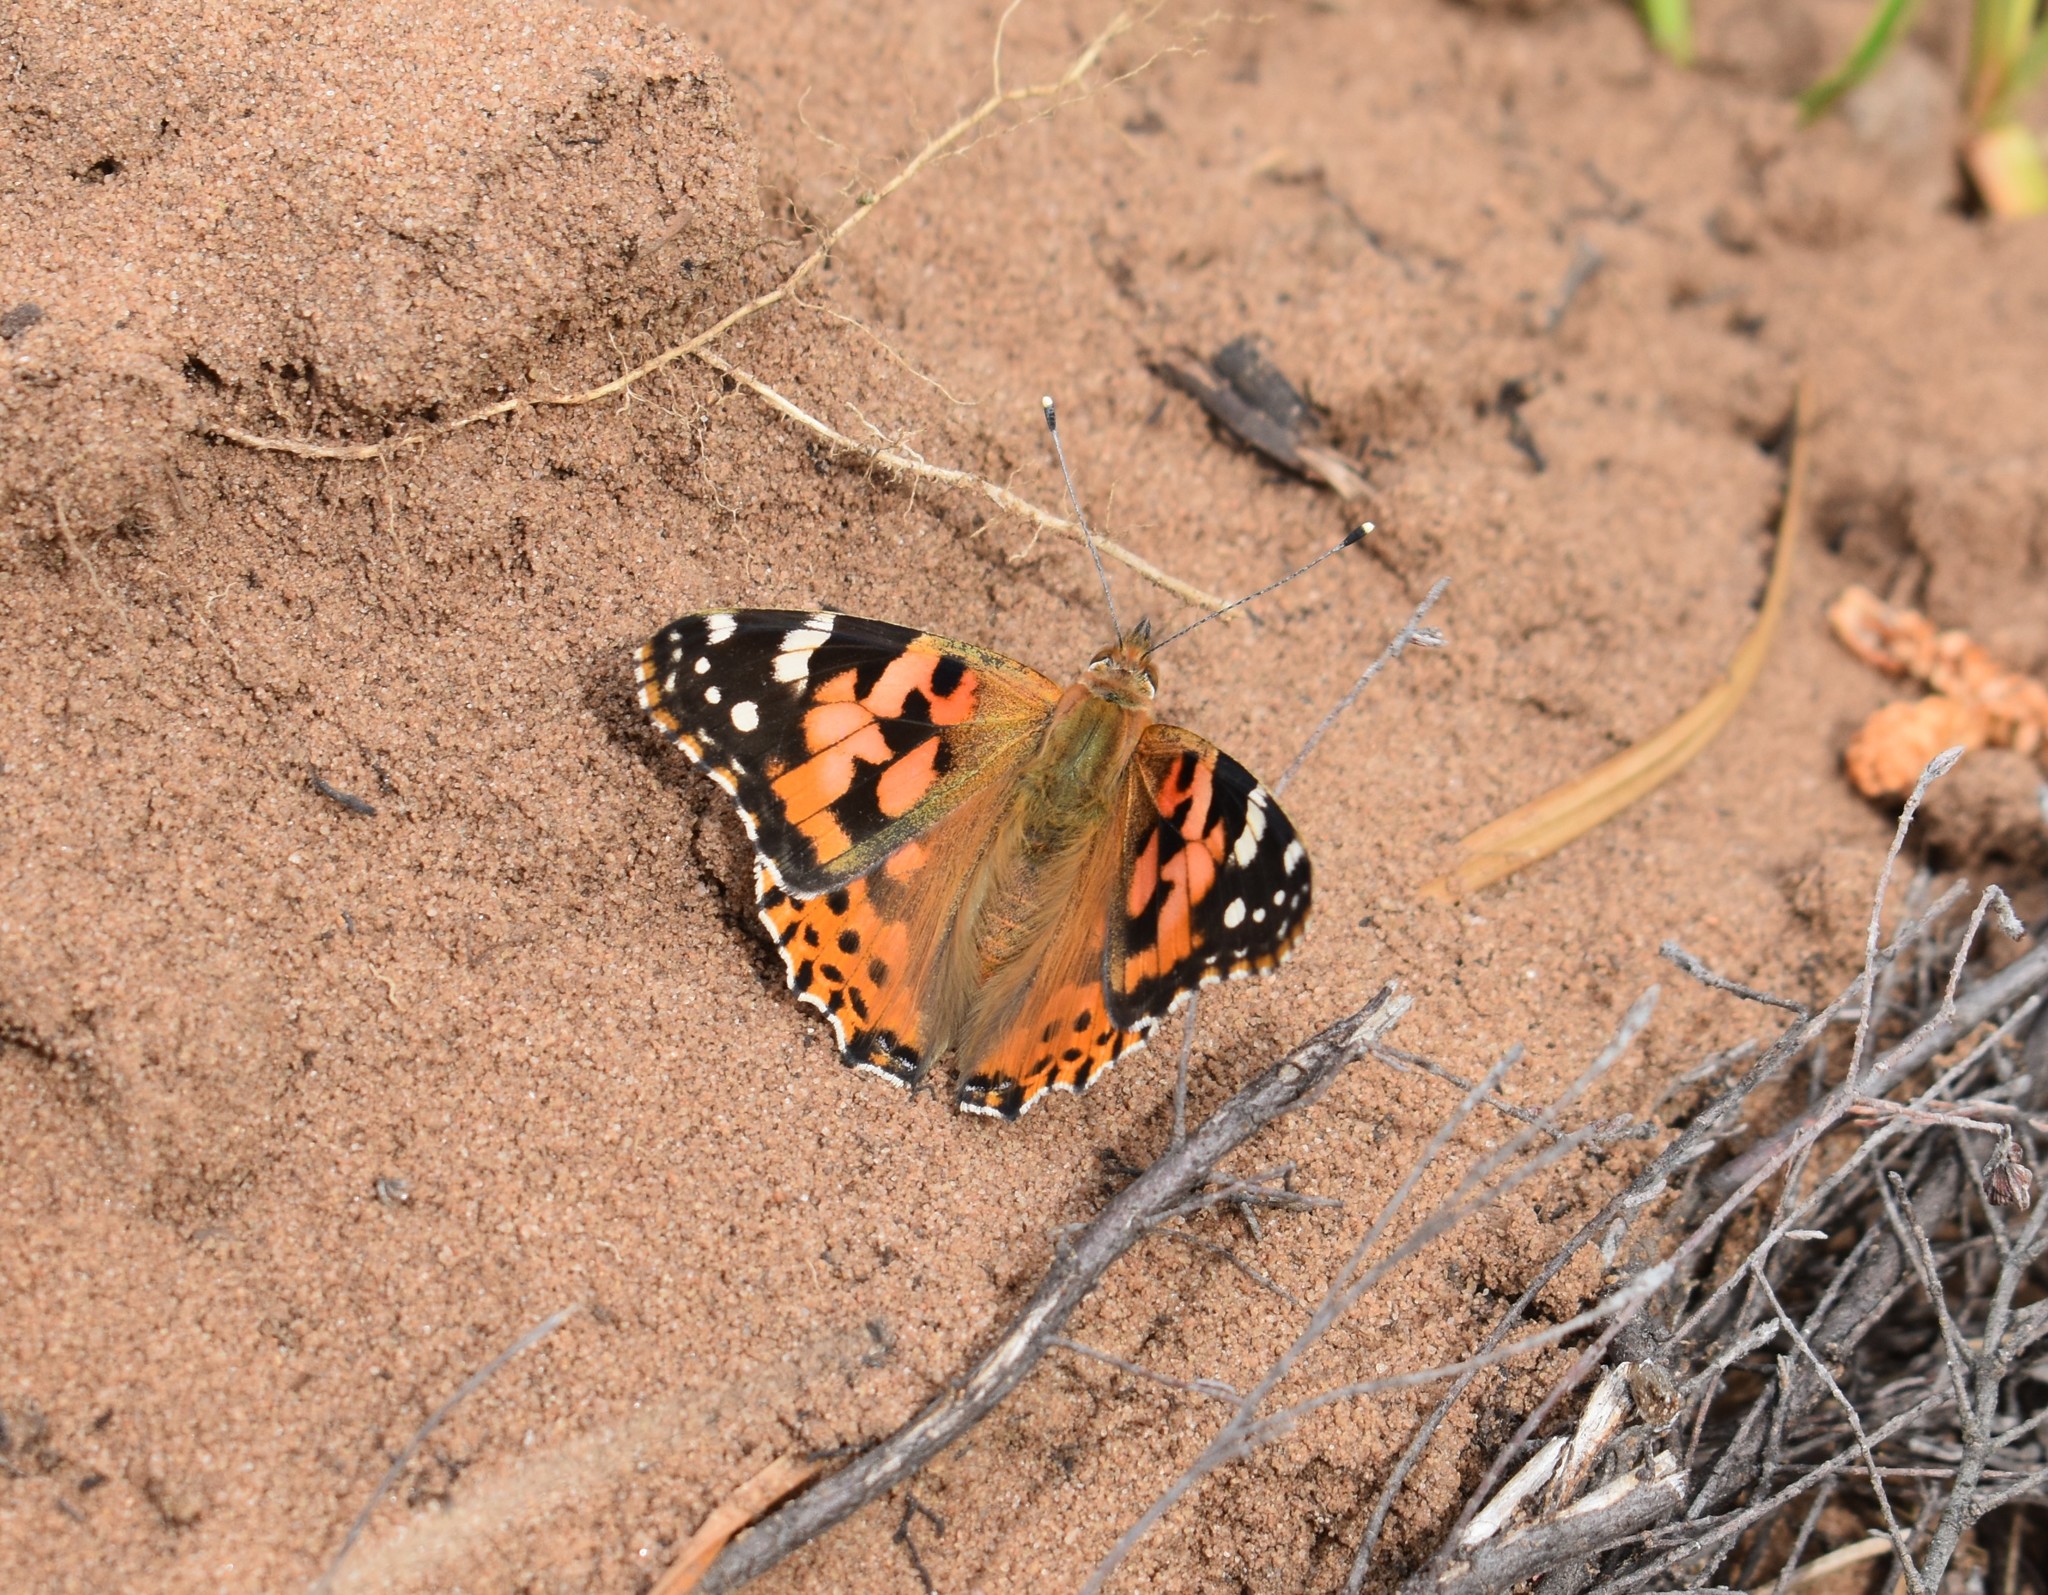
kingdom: Animalia
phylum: Arthropoda
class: Insecta
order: Lepidoptera
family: Nymphalidae
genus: Vanessa
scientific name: Vanessa cardui
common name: Painted lady
